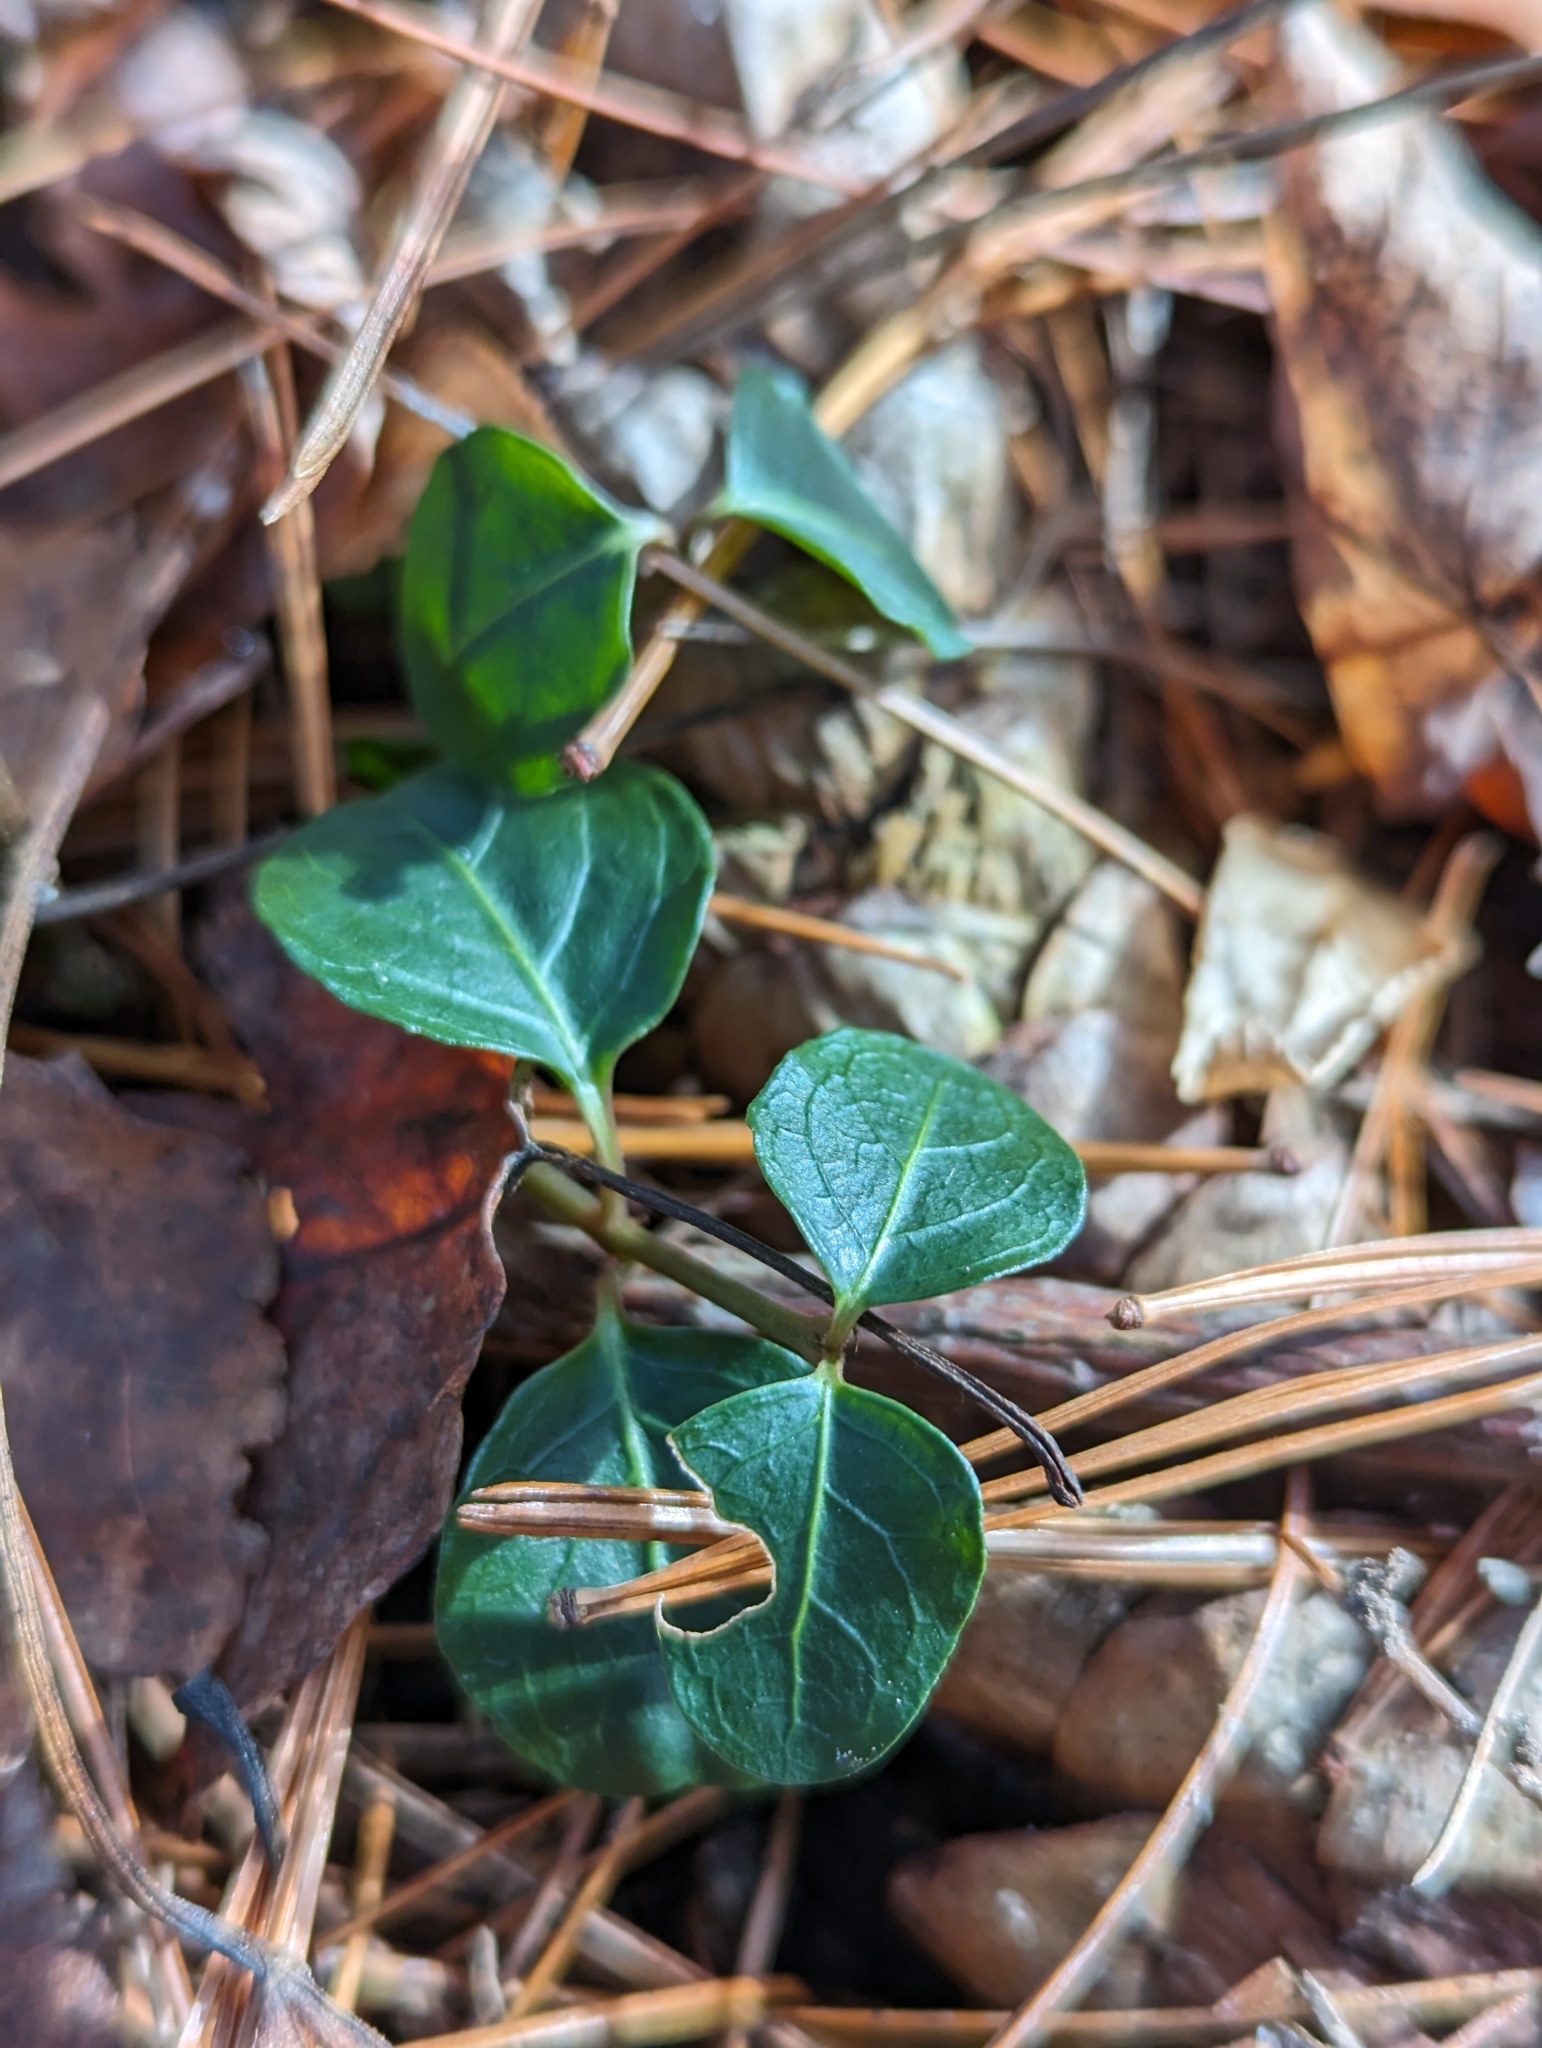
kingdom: Plantae
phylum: Tracheophyta
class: Magnoliopsida
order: Gentianales
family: Rubiaceae
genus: Mitchella
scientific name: Mitchella repens
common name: Partridge-berry
